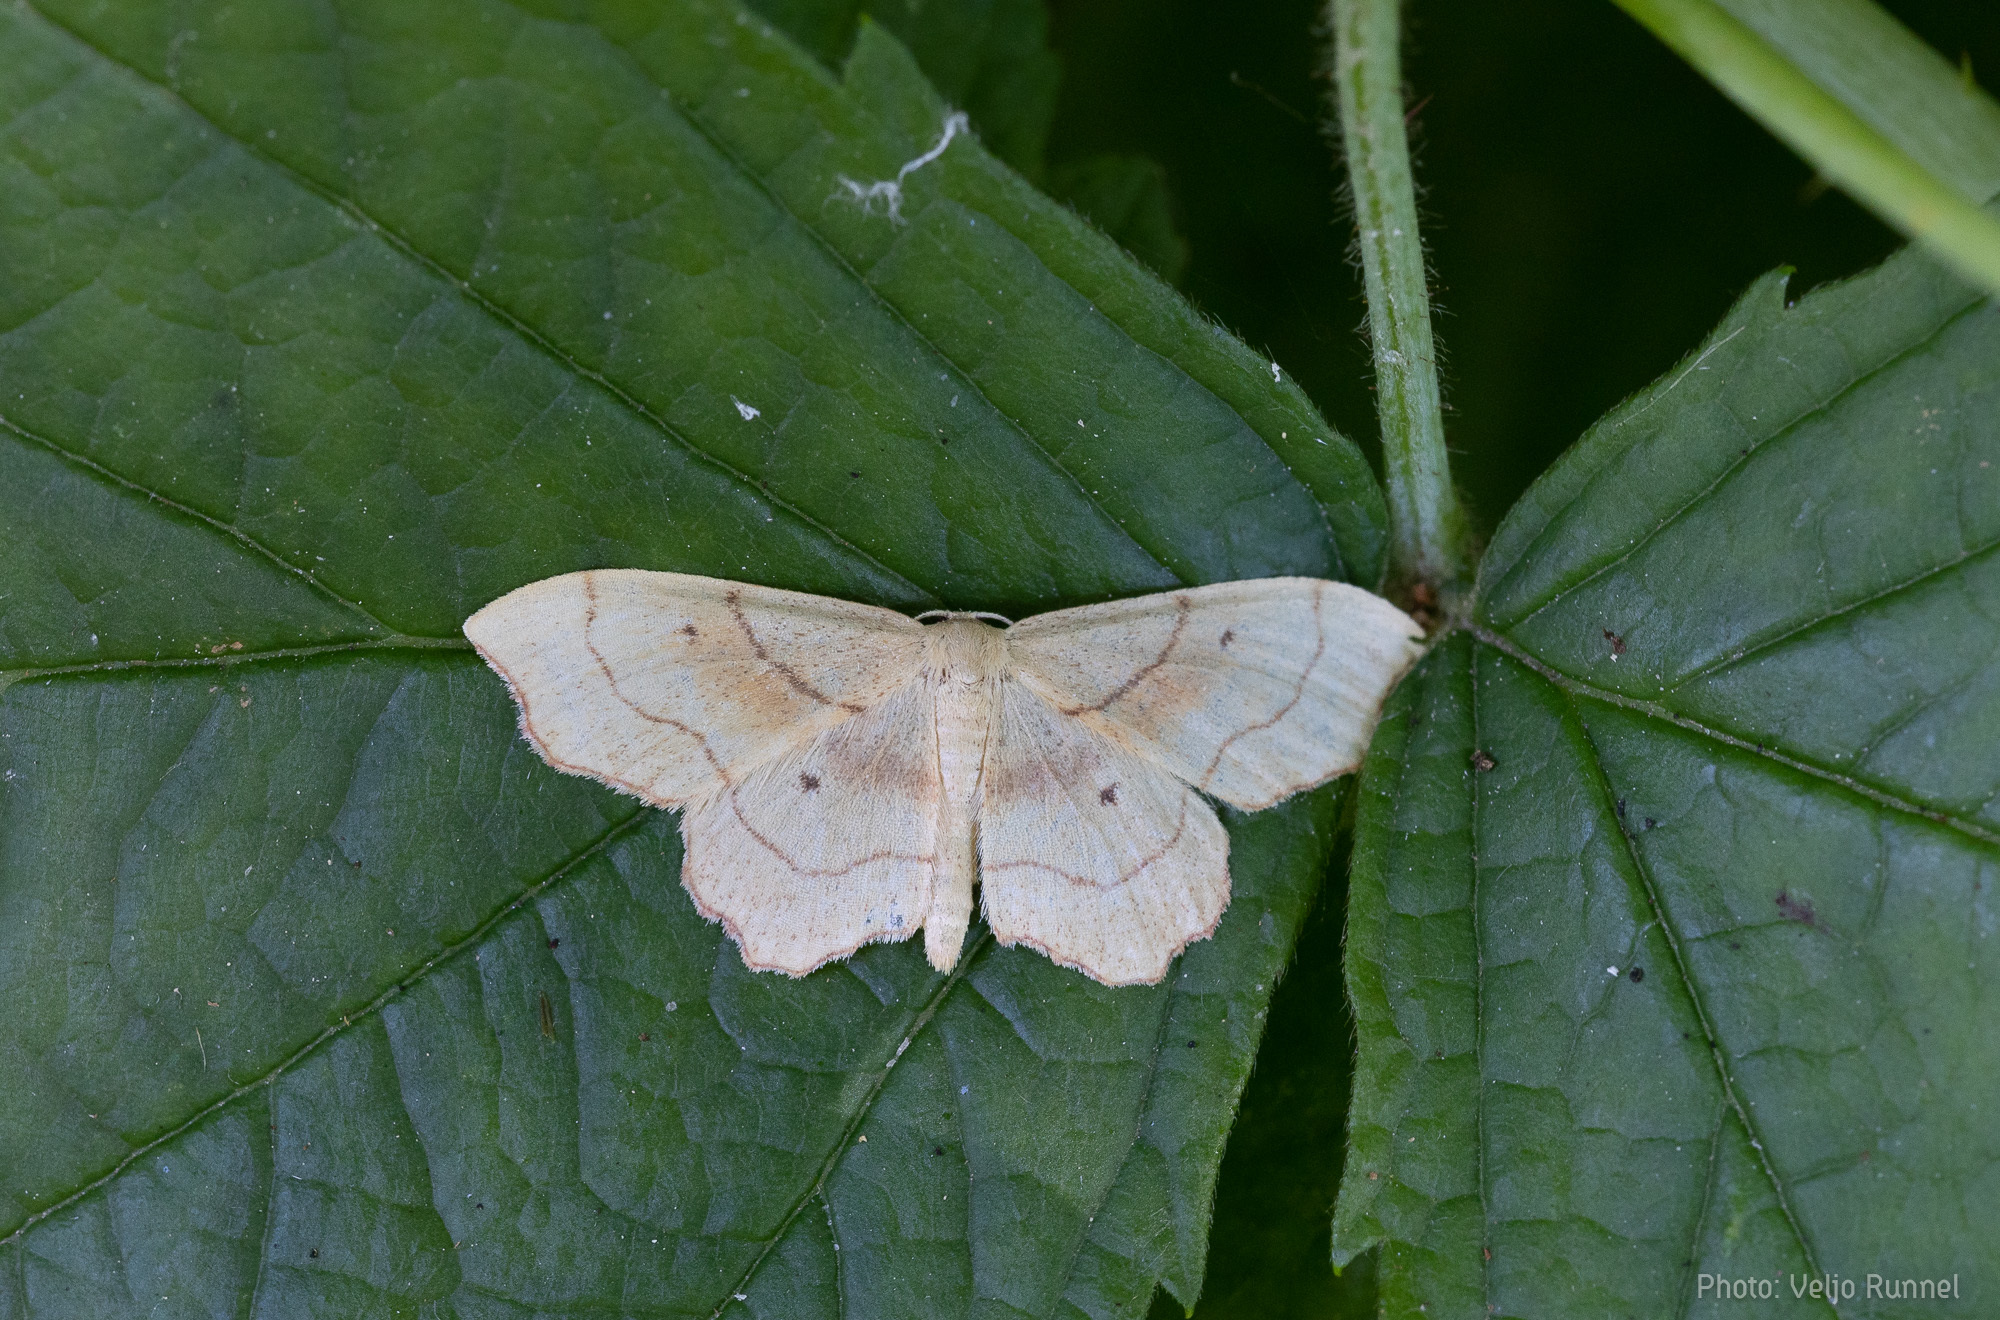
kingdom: Animalia
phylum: Arthropoda
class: Insecta
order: Lepidoptera
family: Geometridae
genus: Idaea
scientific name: Idaea emarginata
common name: Small scallop
